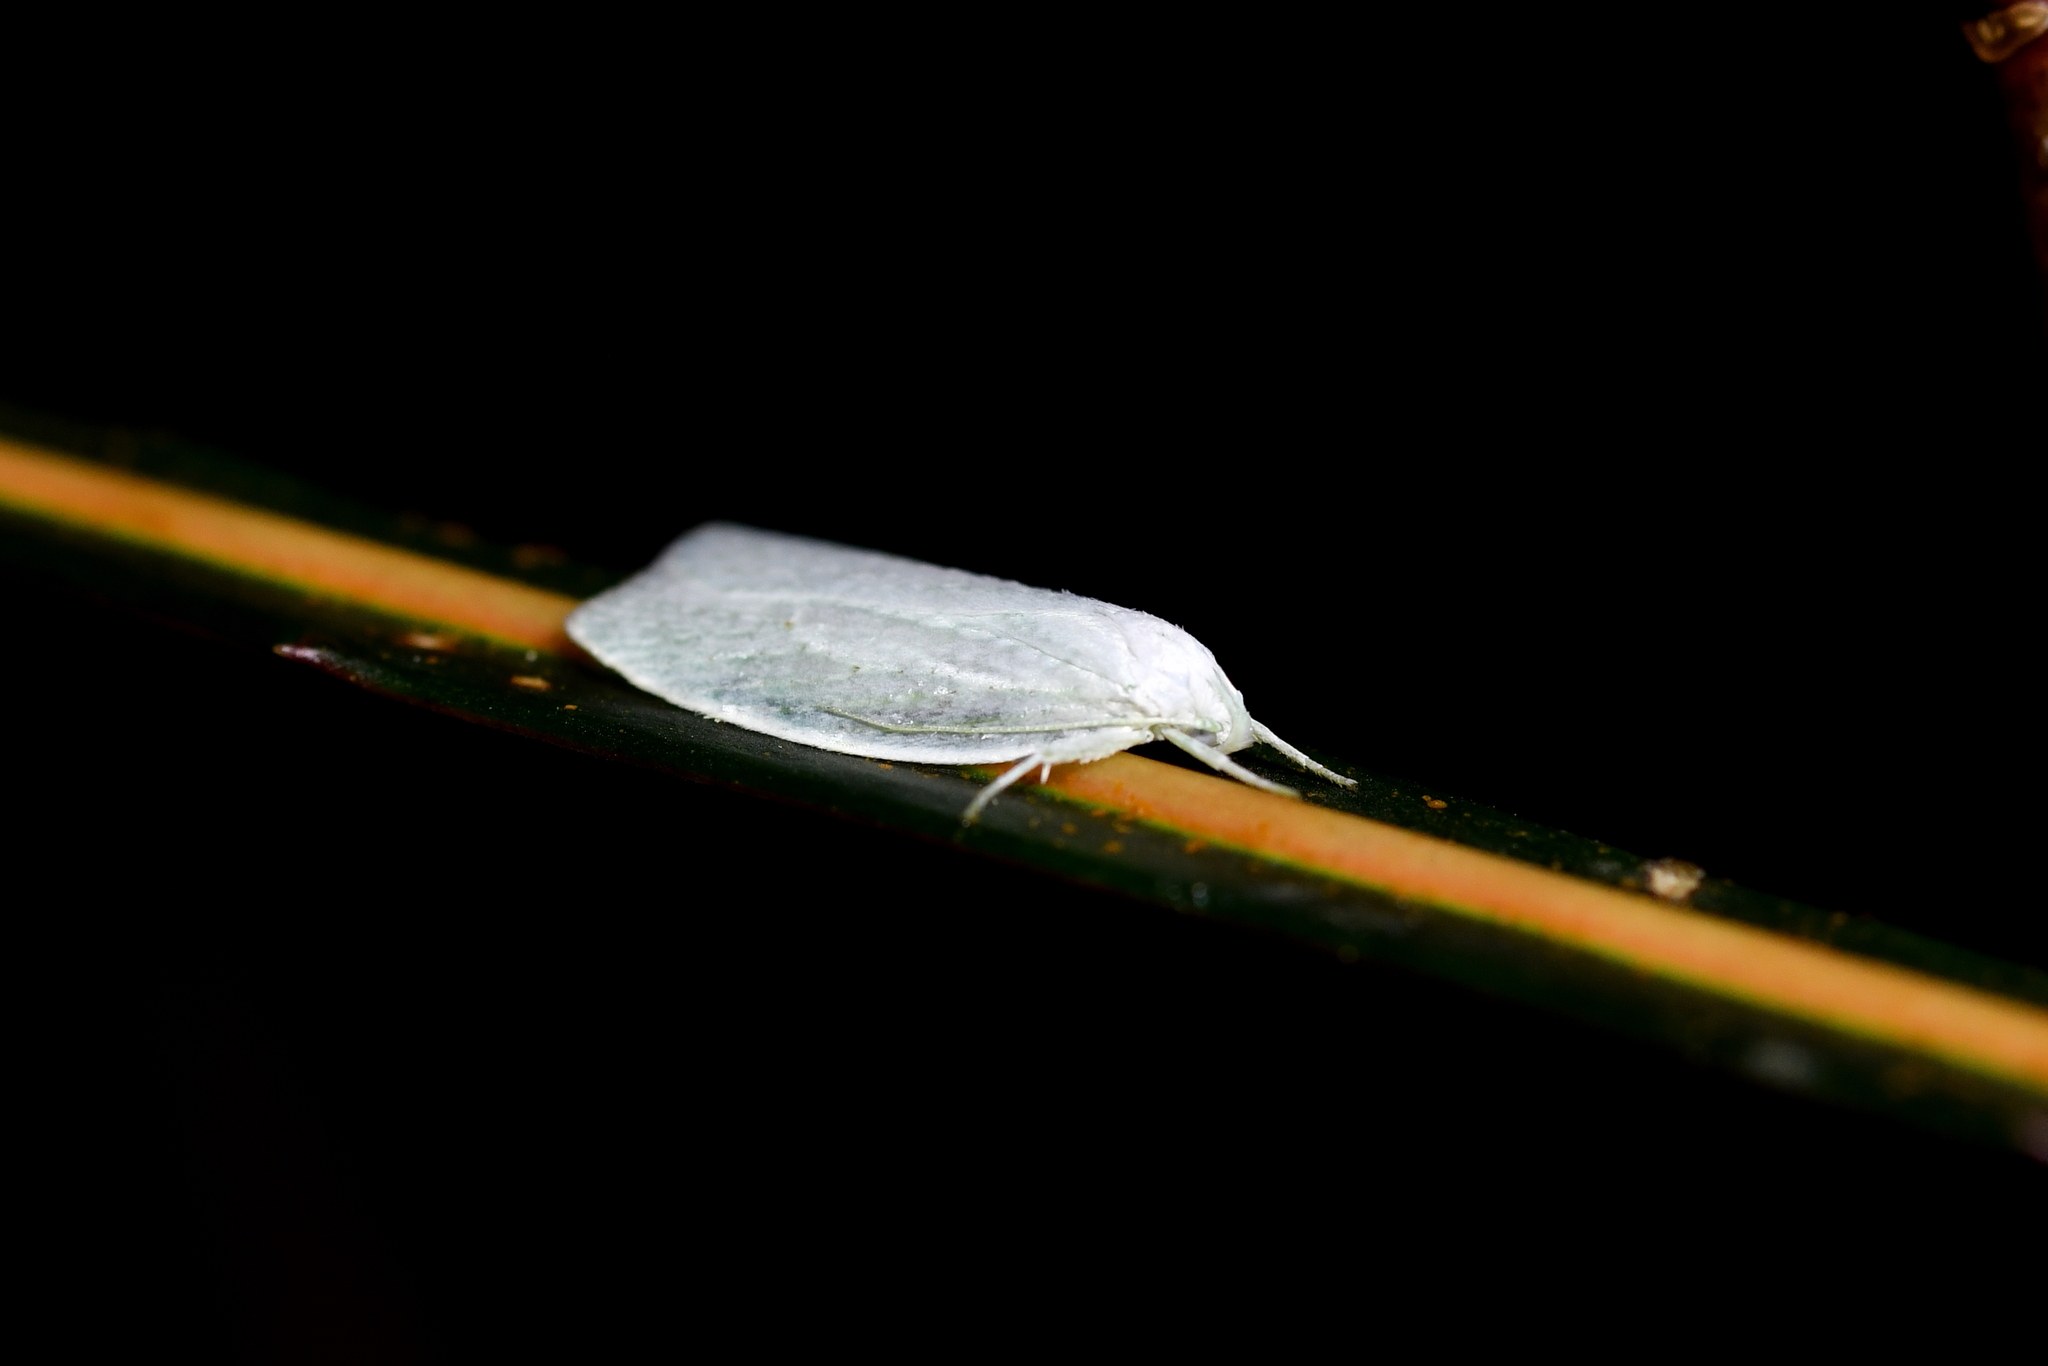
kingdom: Animalia
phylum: Arthropoda
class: Insecta
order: Lepidoptera
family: Oecophoridae
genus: Nymphostola
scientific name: Nymphostola galactina
